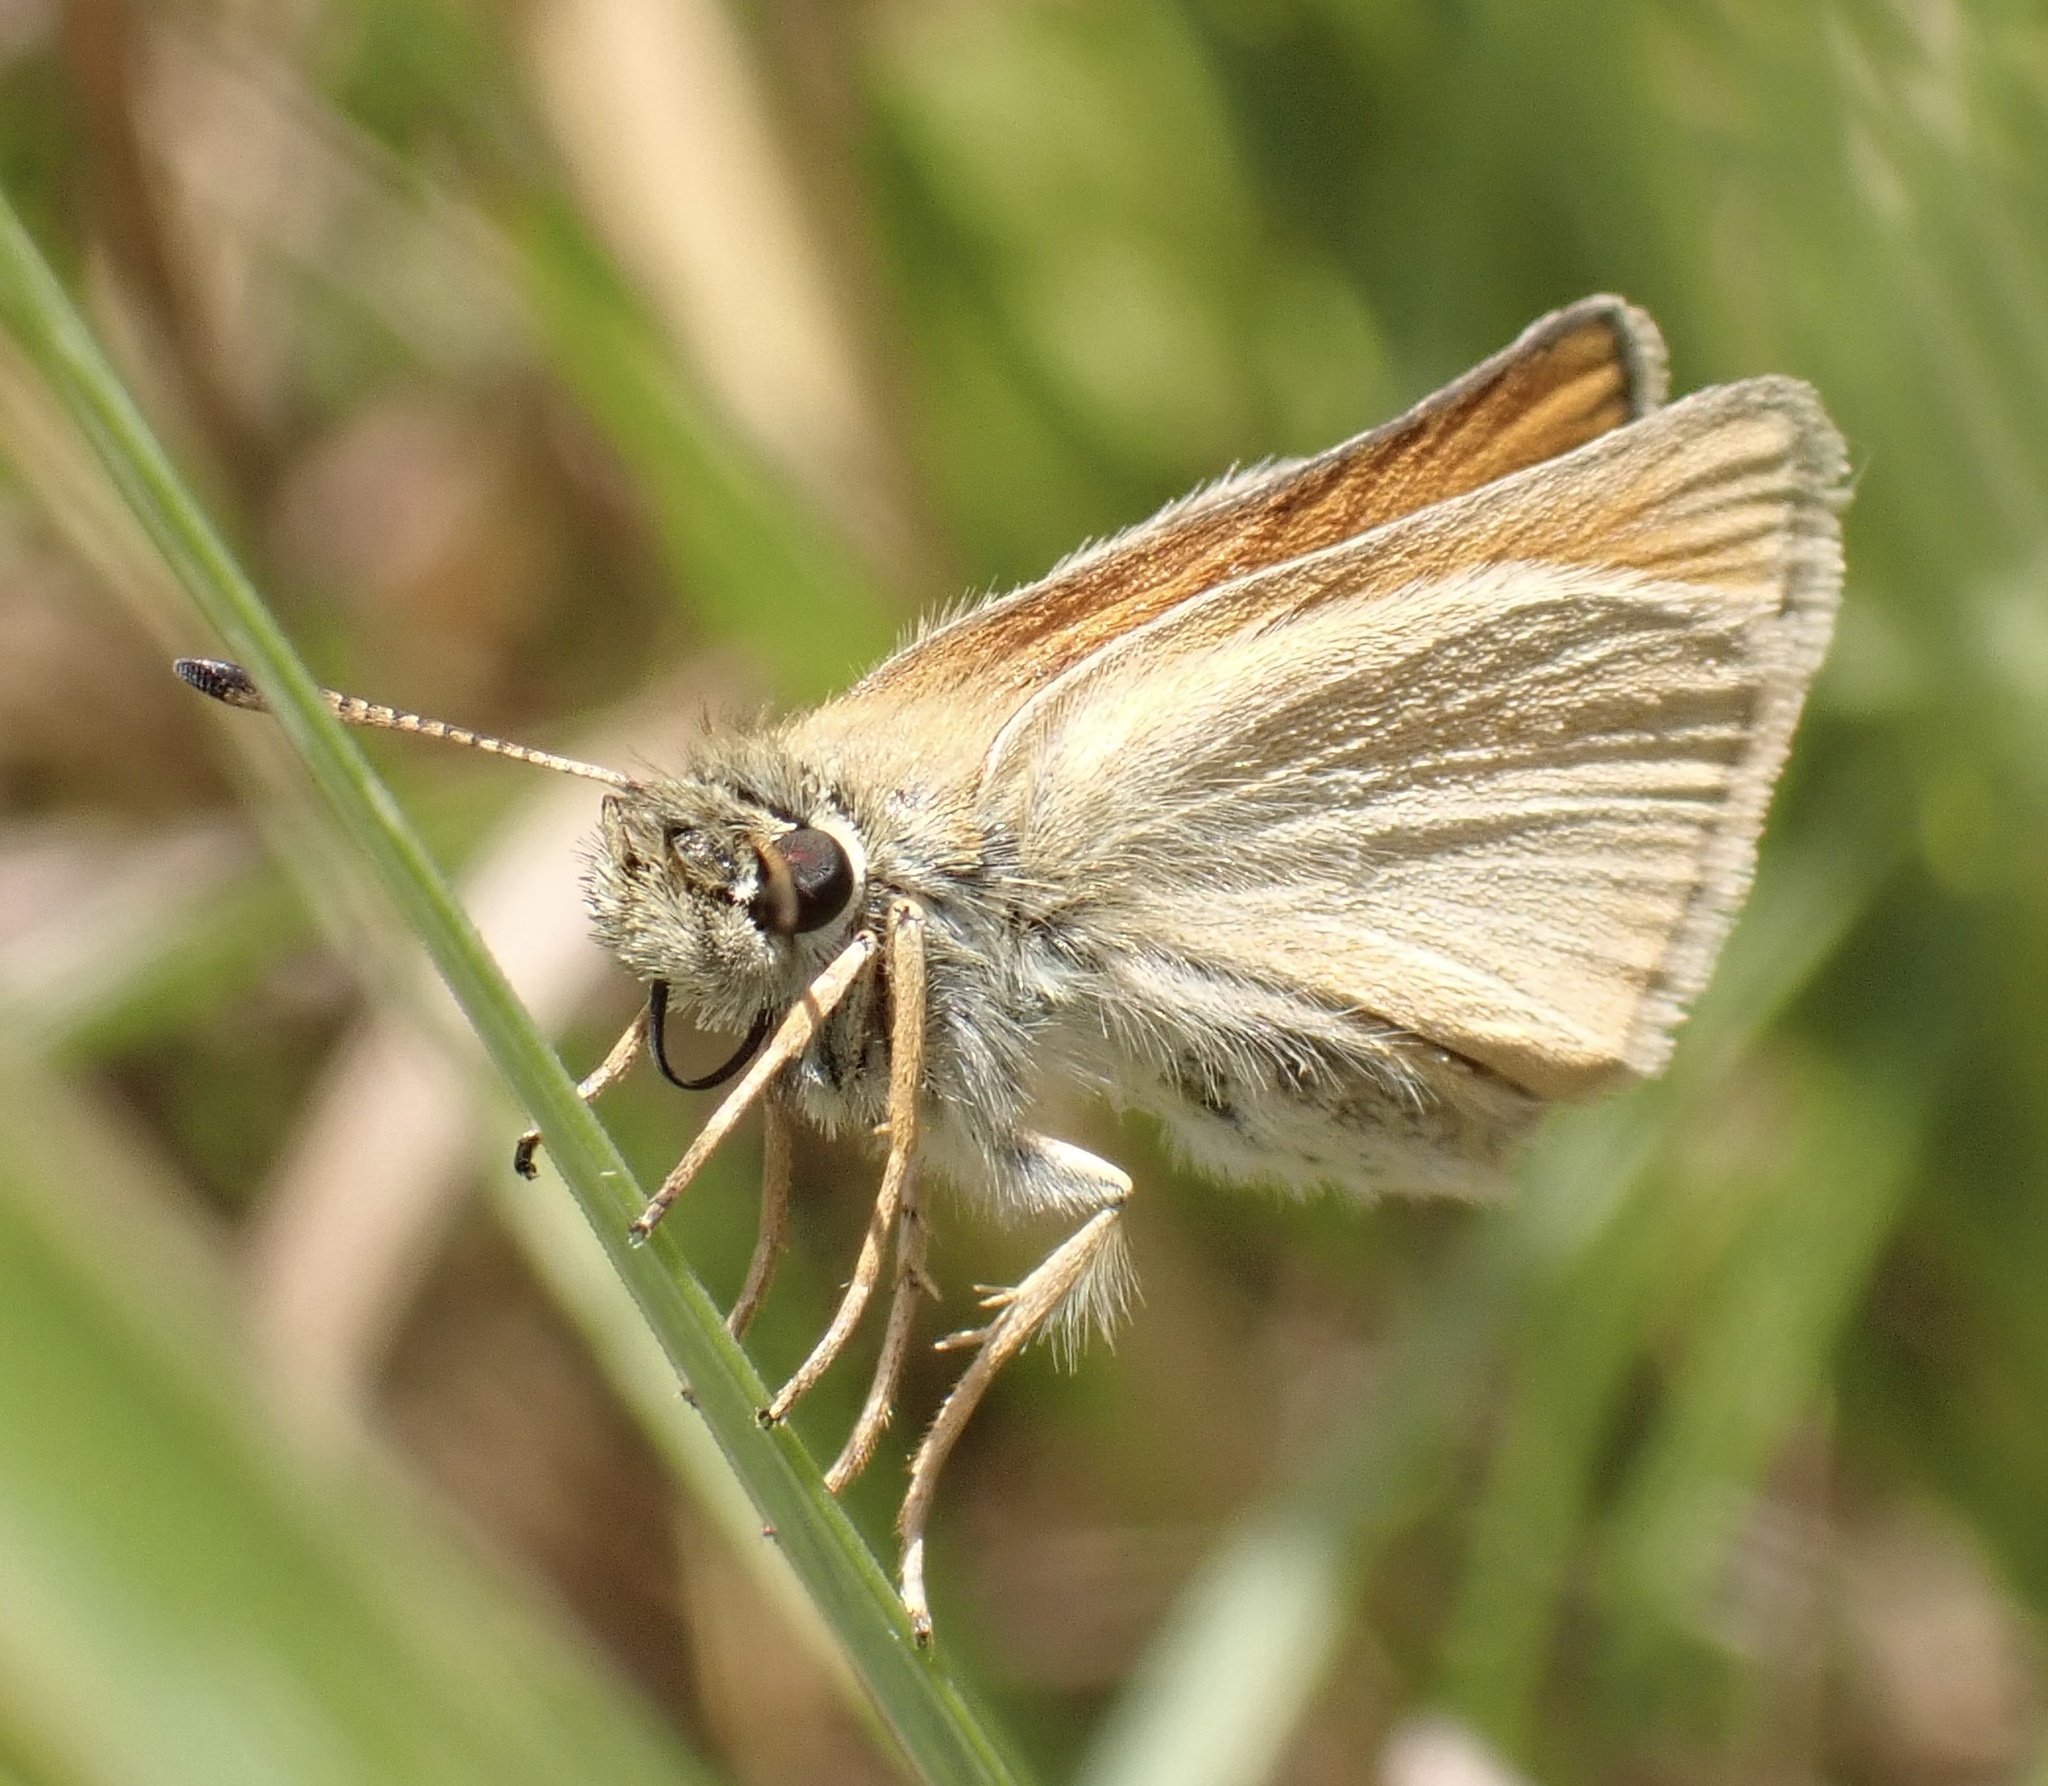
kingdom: Animalia
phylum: Arthropoda
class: Insecta
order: Lepidoptera
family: Hesperiidae
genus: Thymelicus
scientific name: Thymelicus lineola
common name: Essex skipper
